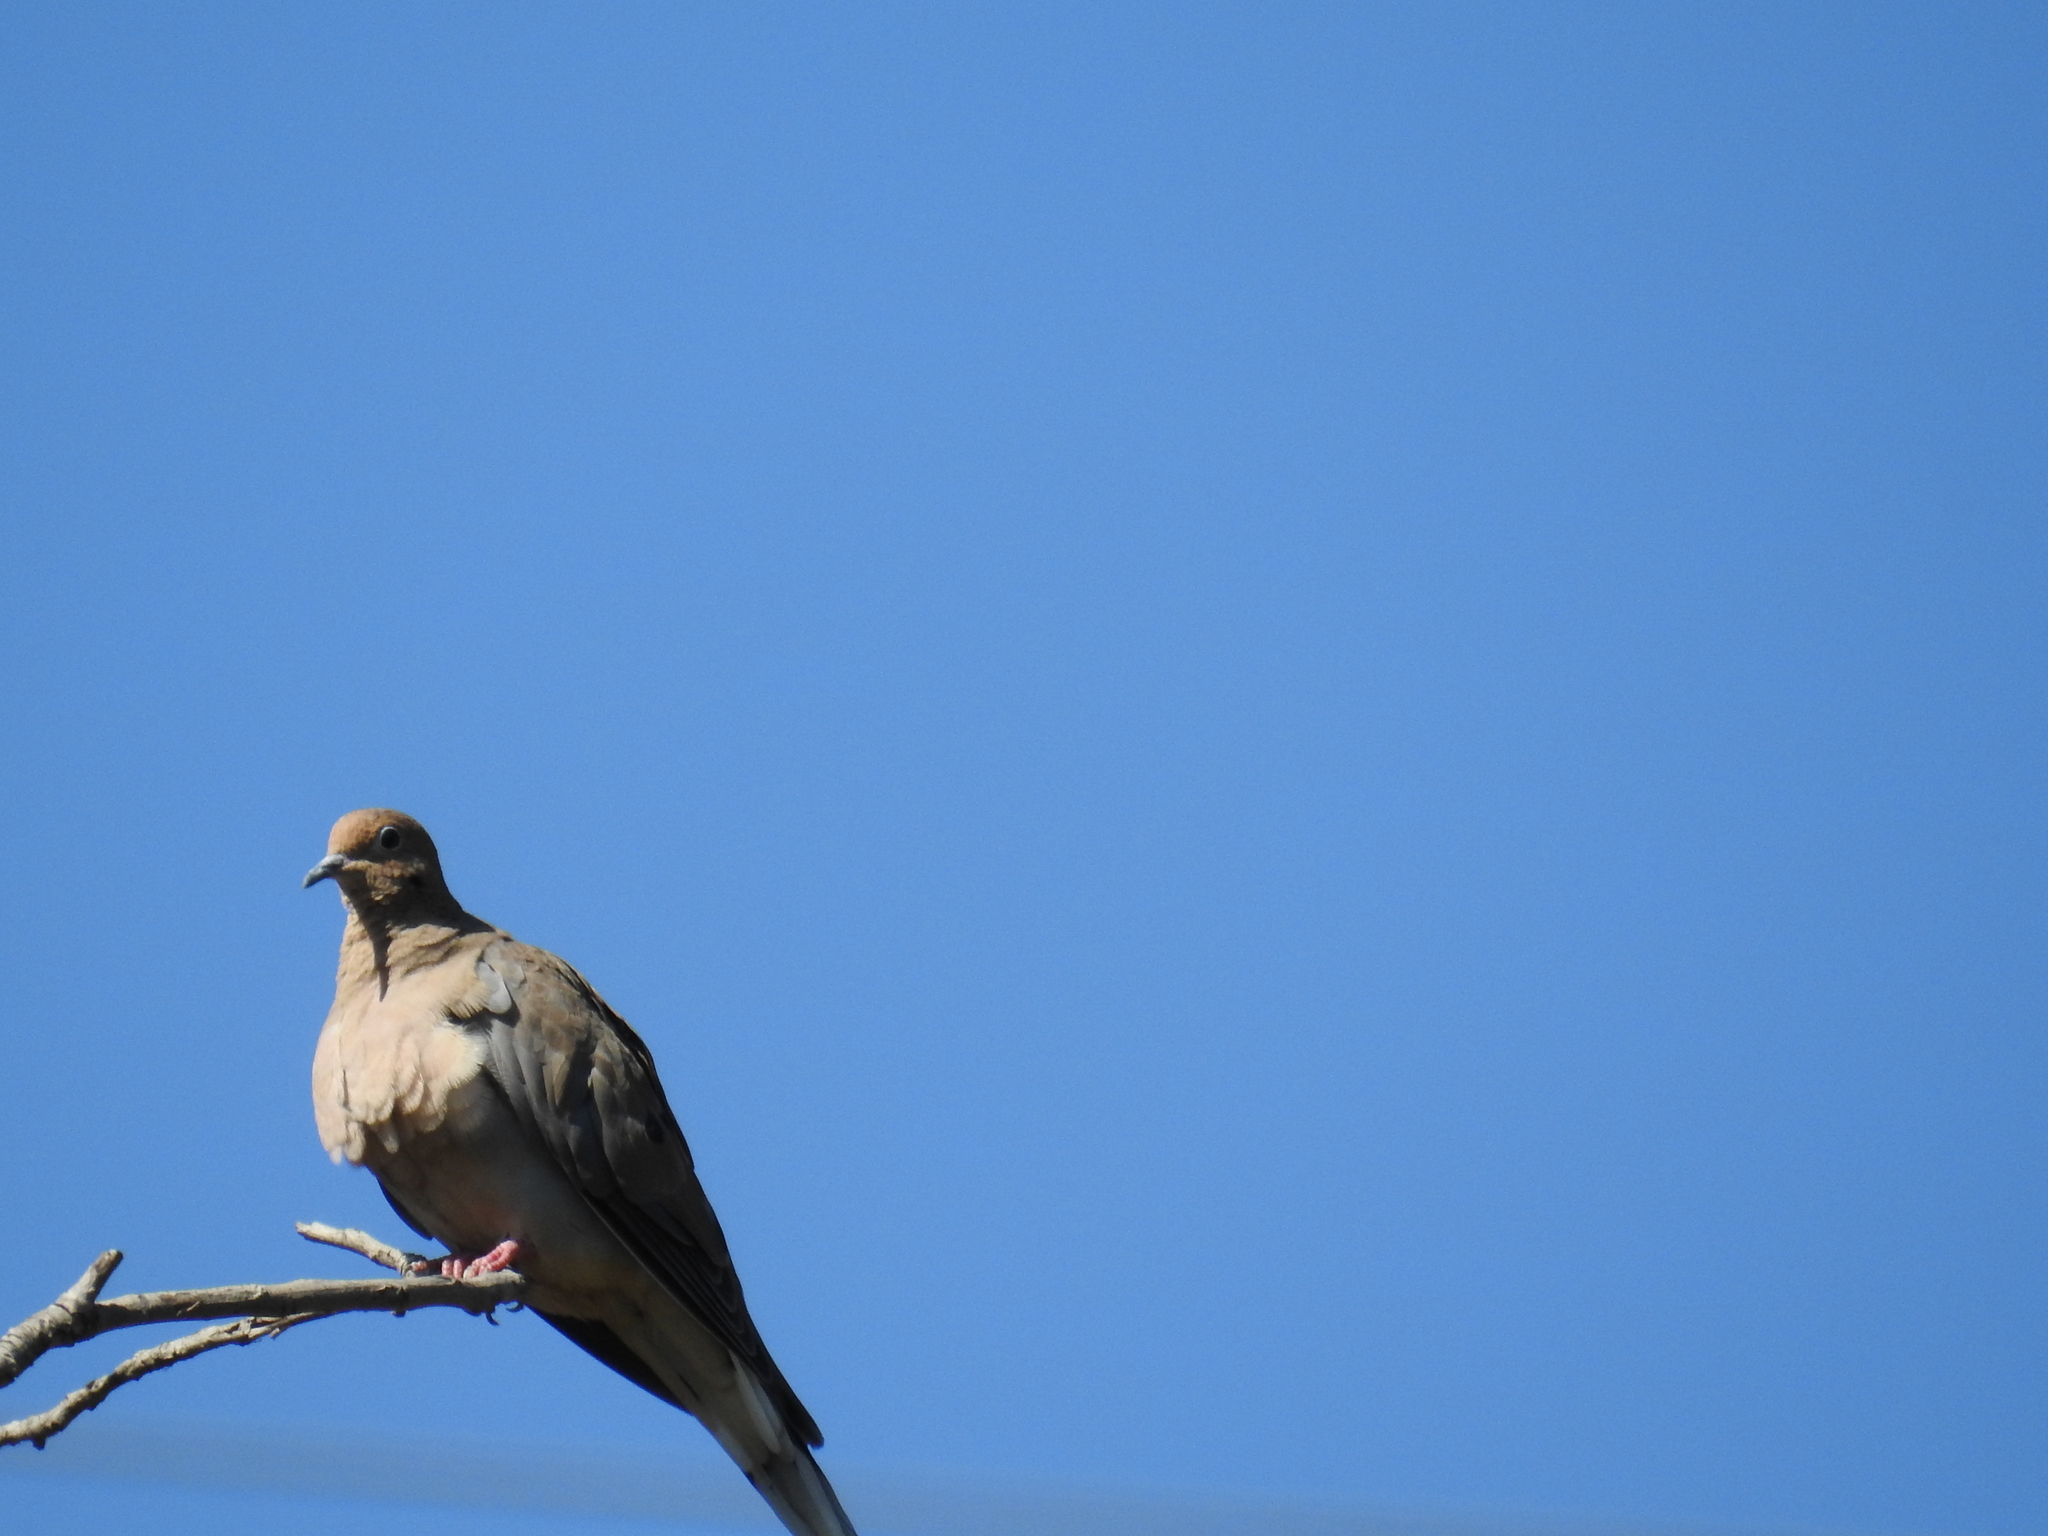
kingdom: Animalia
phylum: Chordata
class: Aves
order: Columbiformes
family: Columbidae
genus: Zenaida
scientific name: Zenaida macroura
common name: Mourning dove
